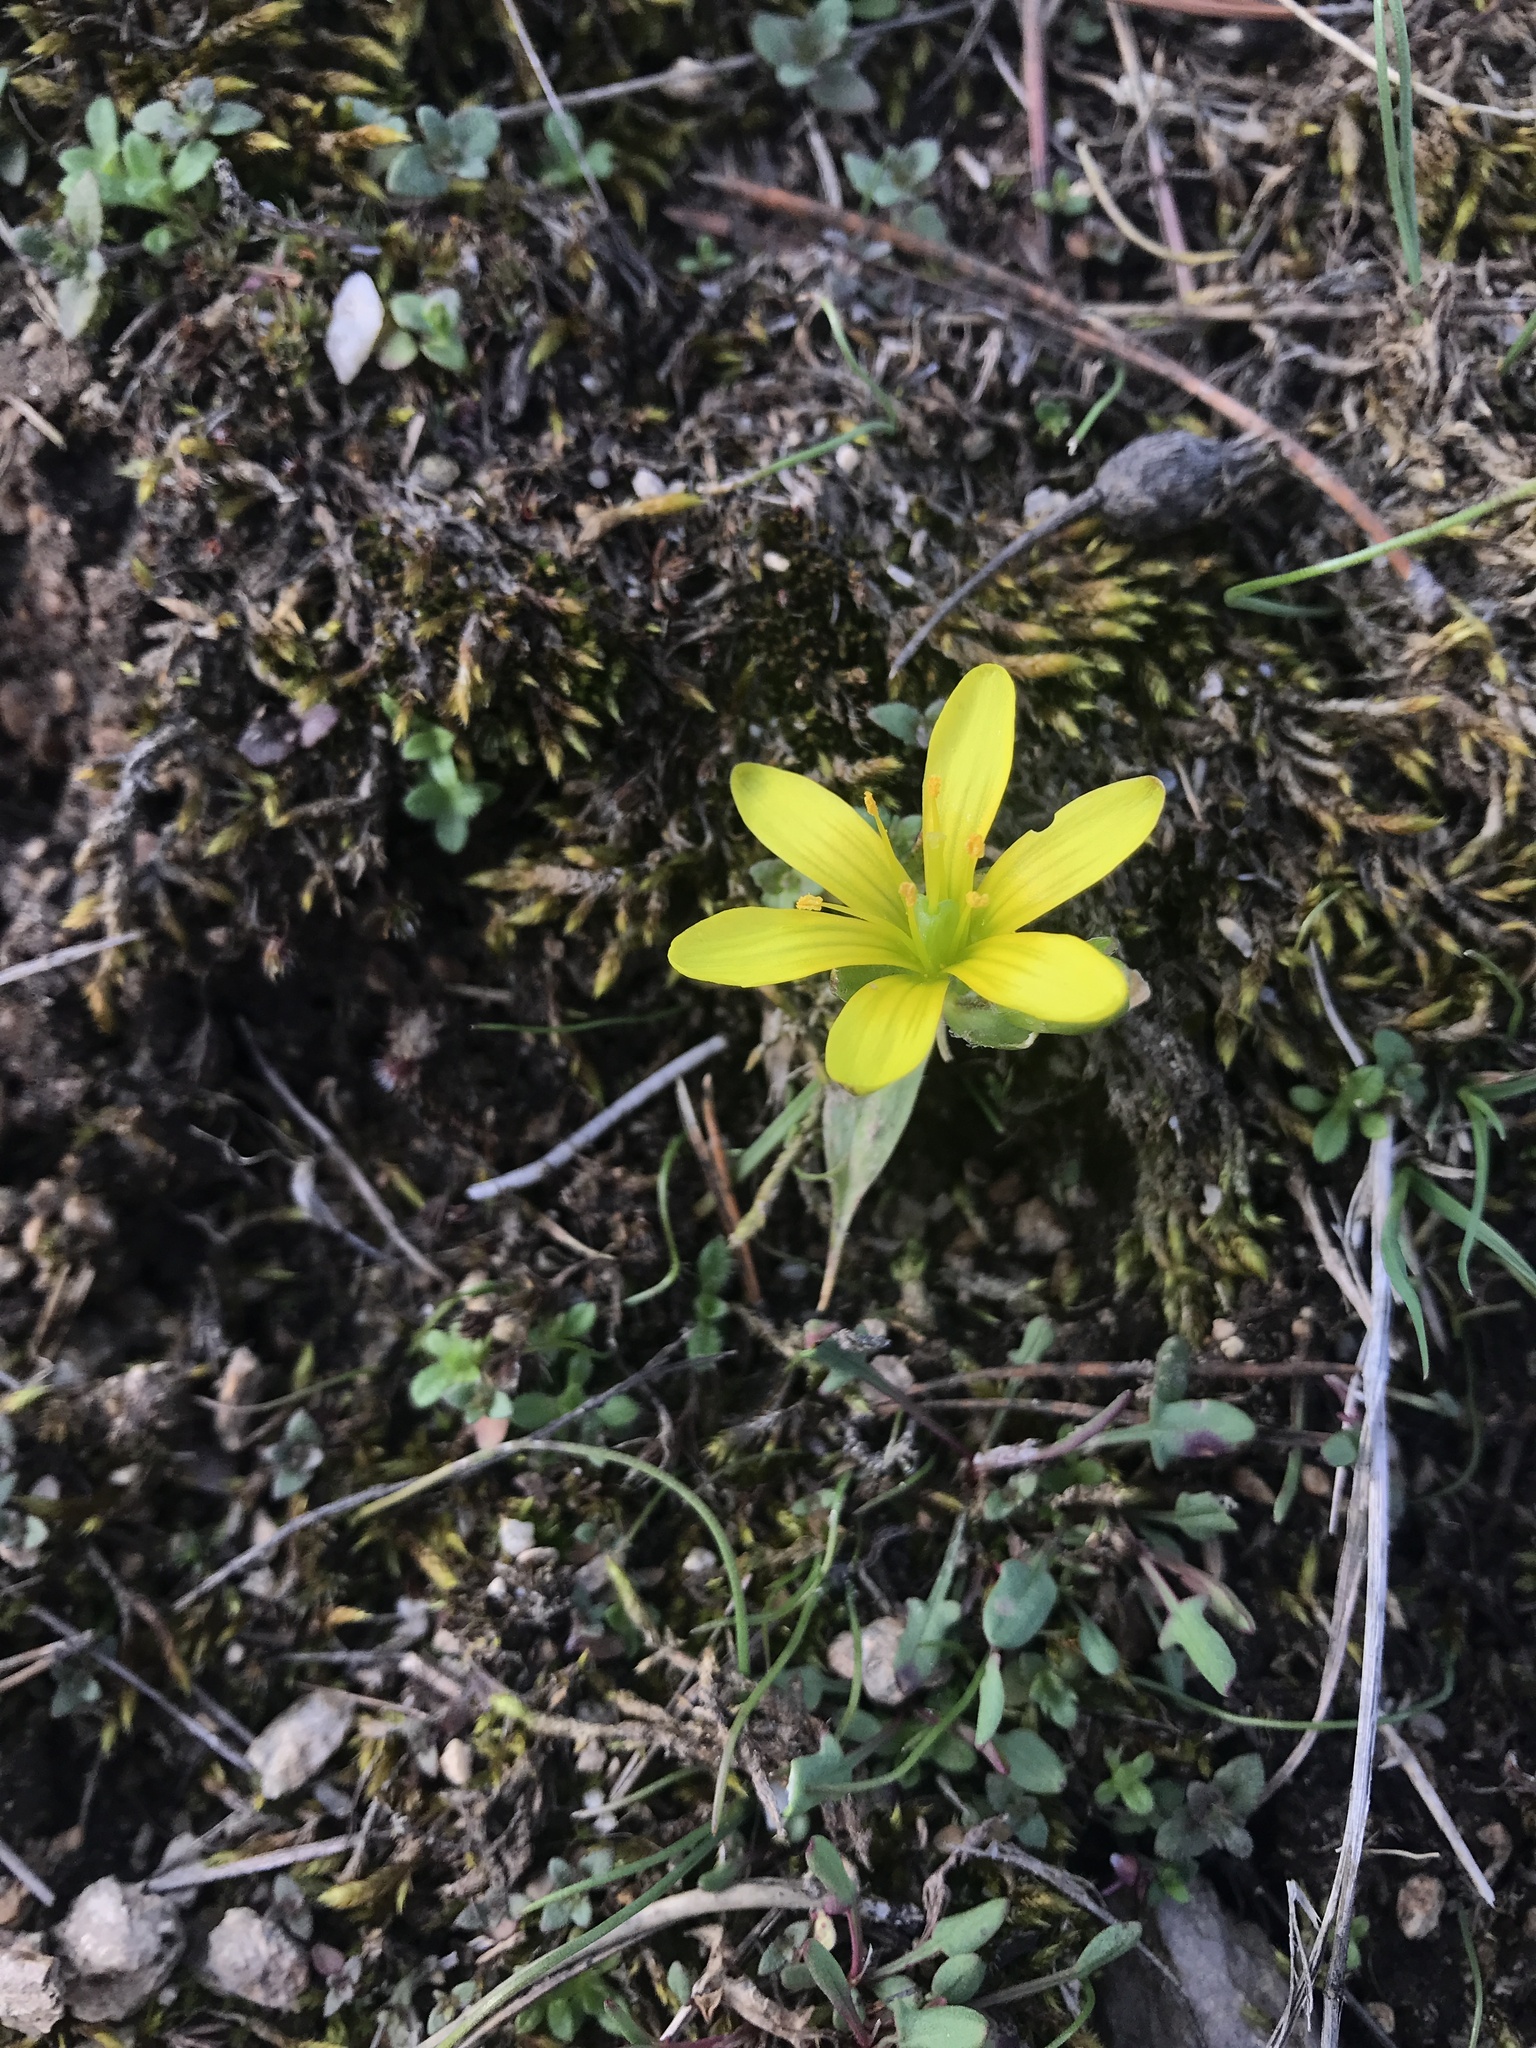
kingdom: Plantae
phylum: Tracheophyta
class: Liliopsida
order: Liliales
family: Liliaceae
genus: Gagea
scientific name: Gagea bohemica
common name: Early star-of-bethlehem
